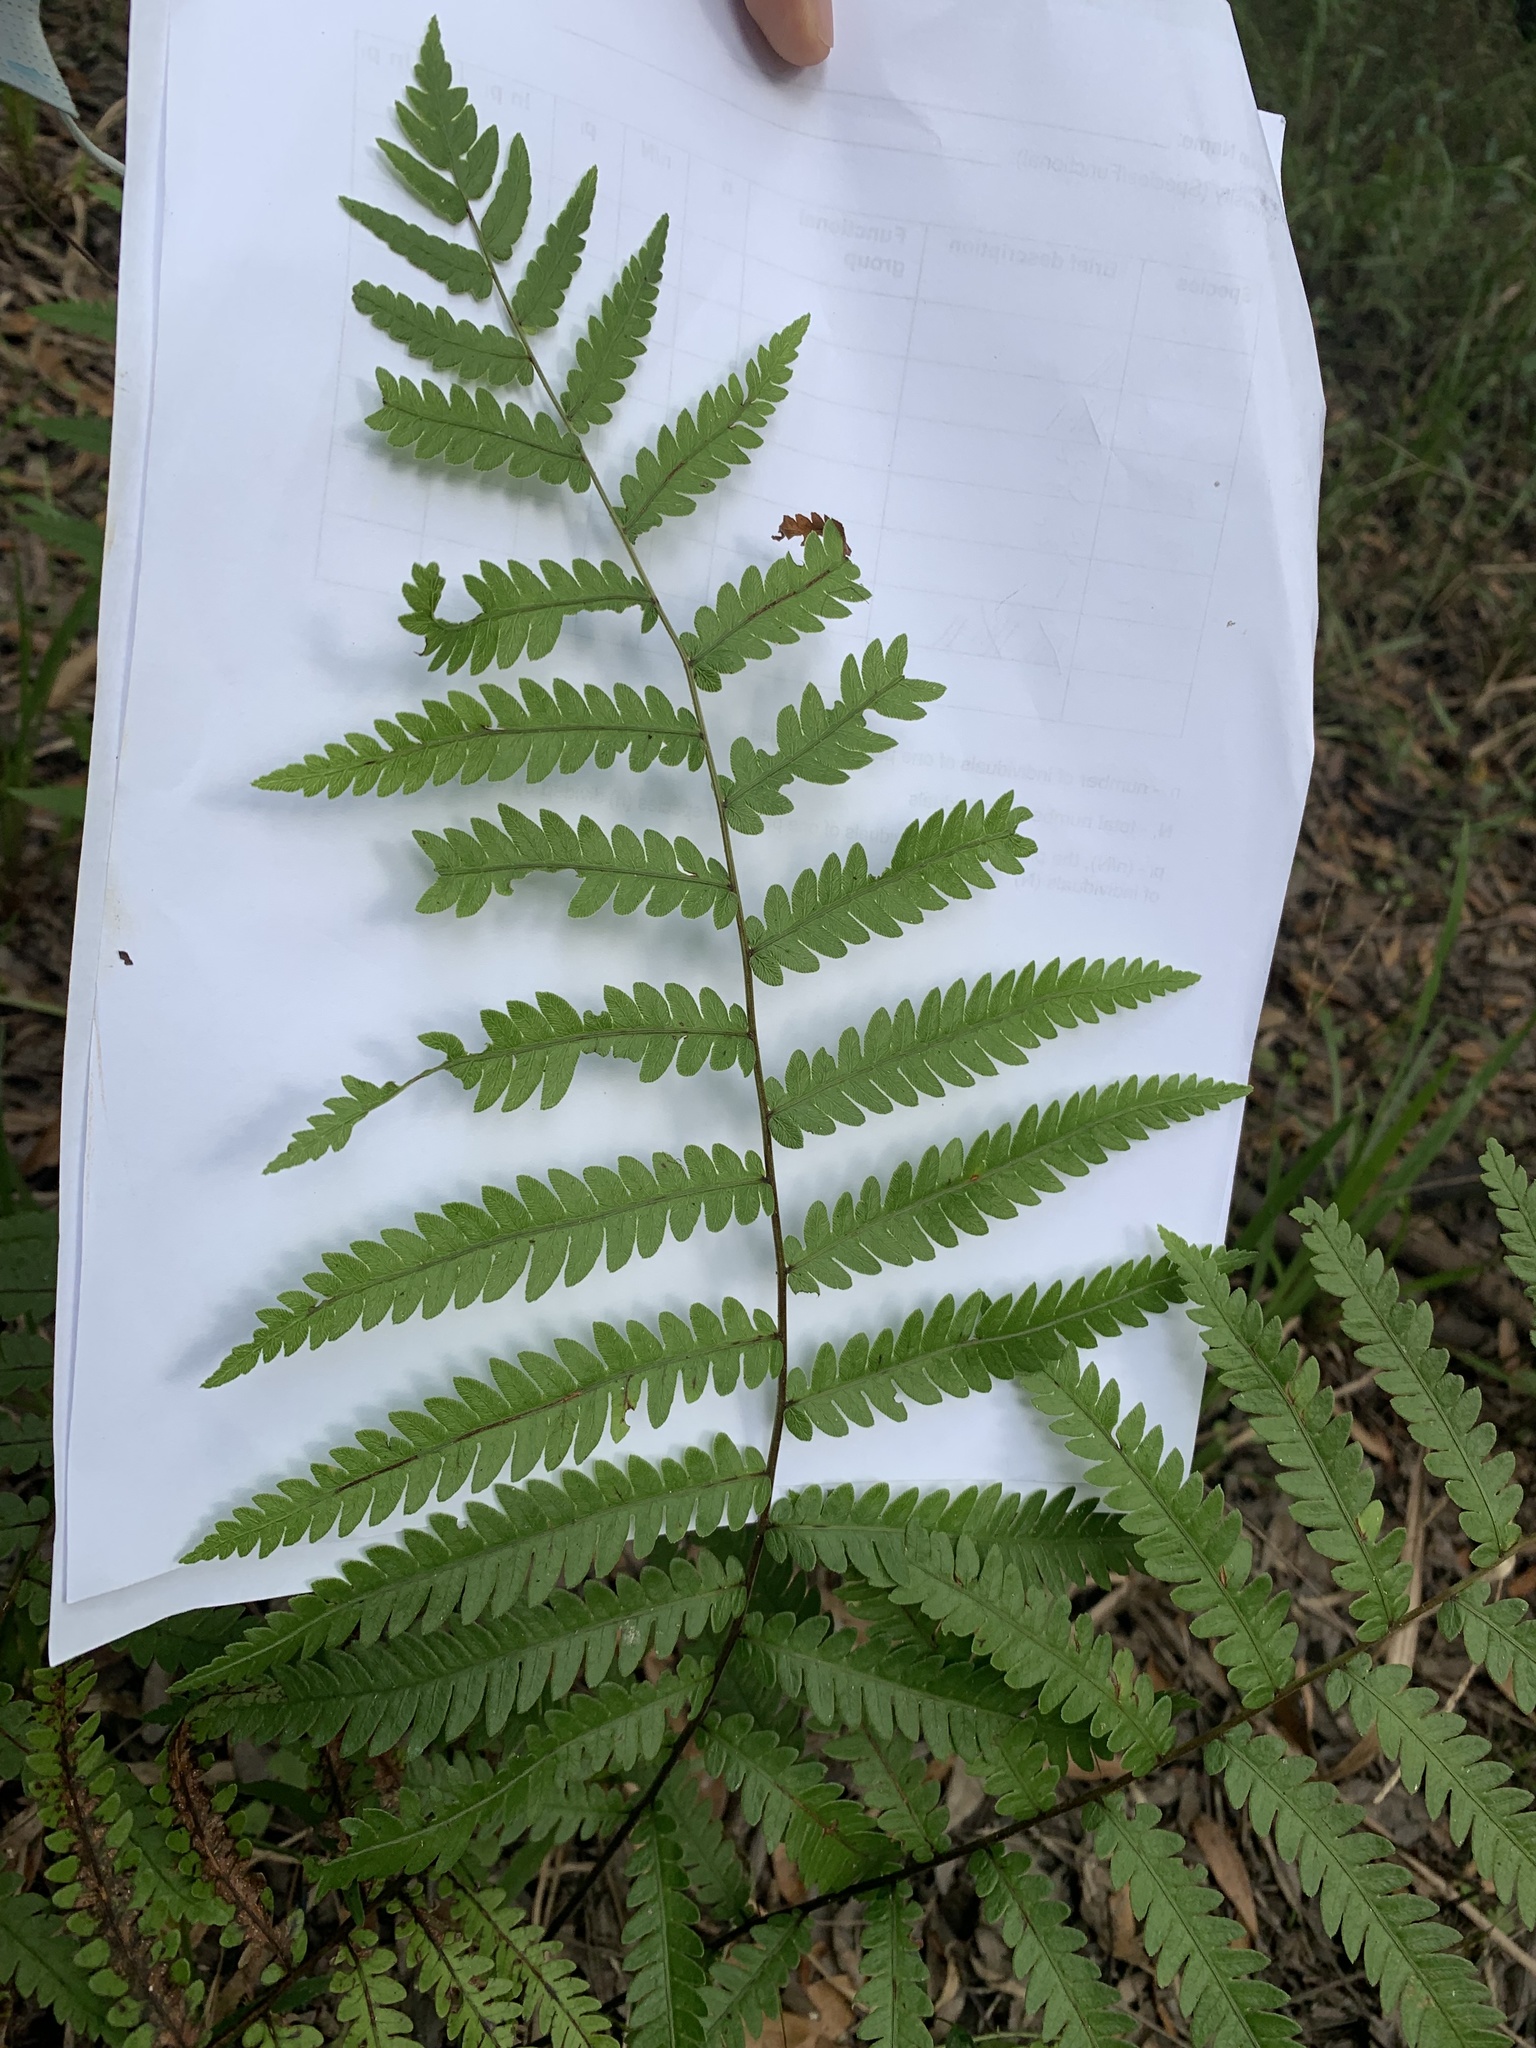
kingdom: Plantae
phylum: Tracheophyta
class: Polypodiopsida
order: Polypodiales
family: Blechnaceae
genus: Anchistea
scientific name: Anchistea virginica
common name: Virginia chain fern
